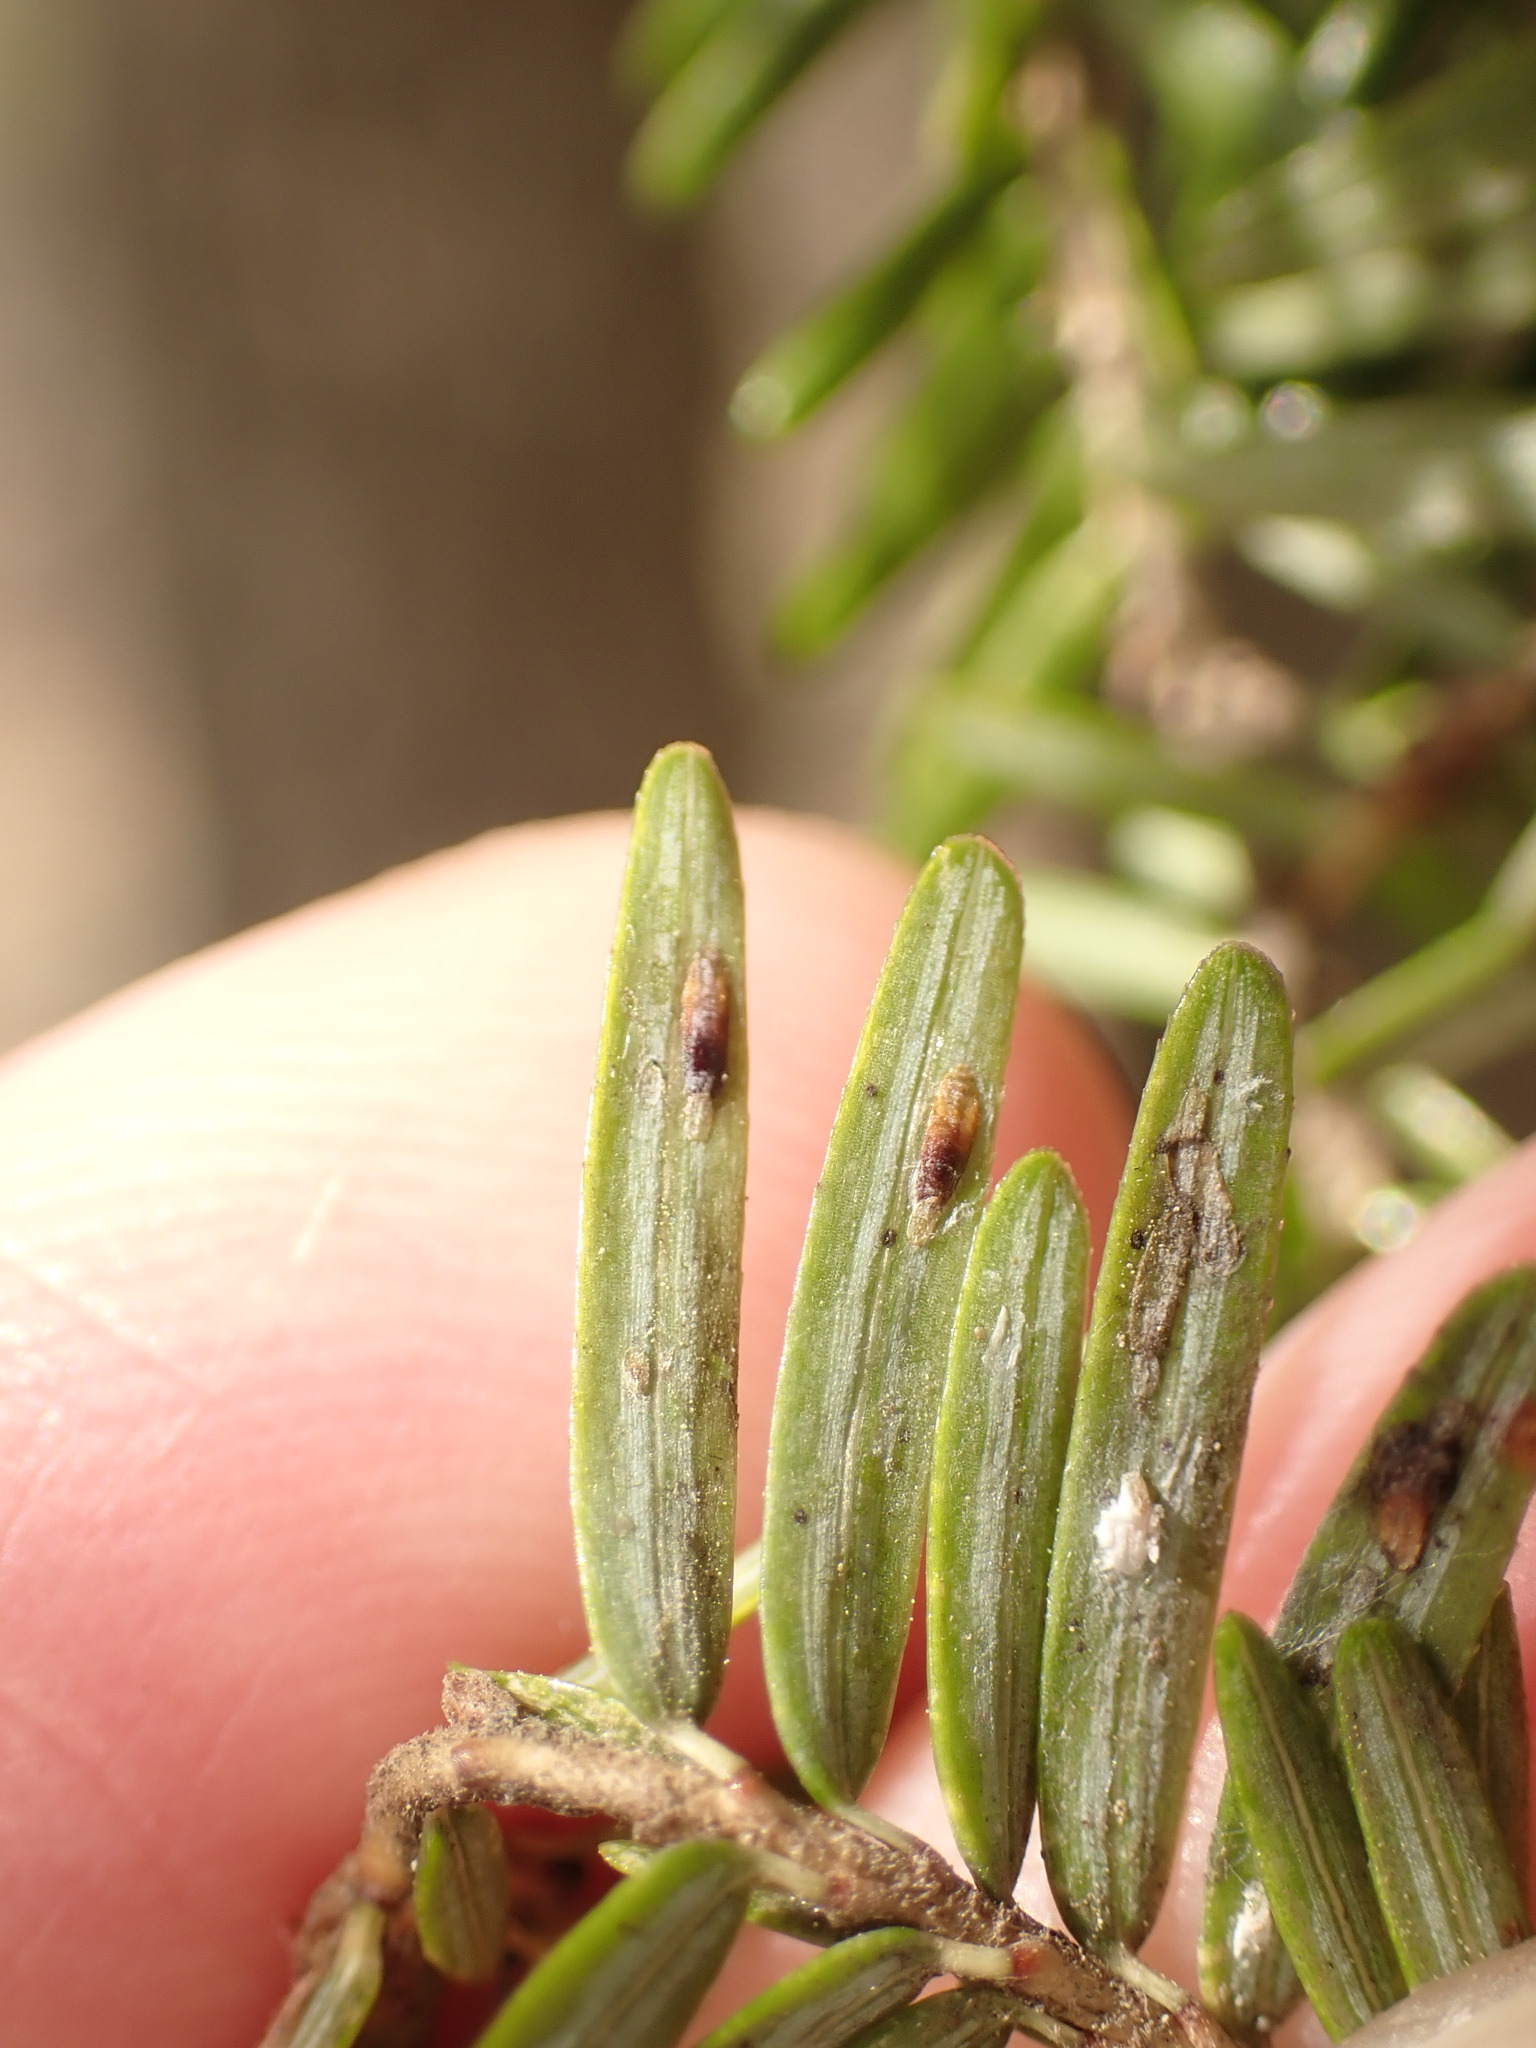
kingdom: Animalia
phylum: Arthropoda
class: Insecta
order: Hemiptera
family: Diaspididae
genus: Fiorinia
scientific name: Fiorinia externa
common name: Elongate hemlock scale
